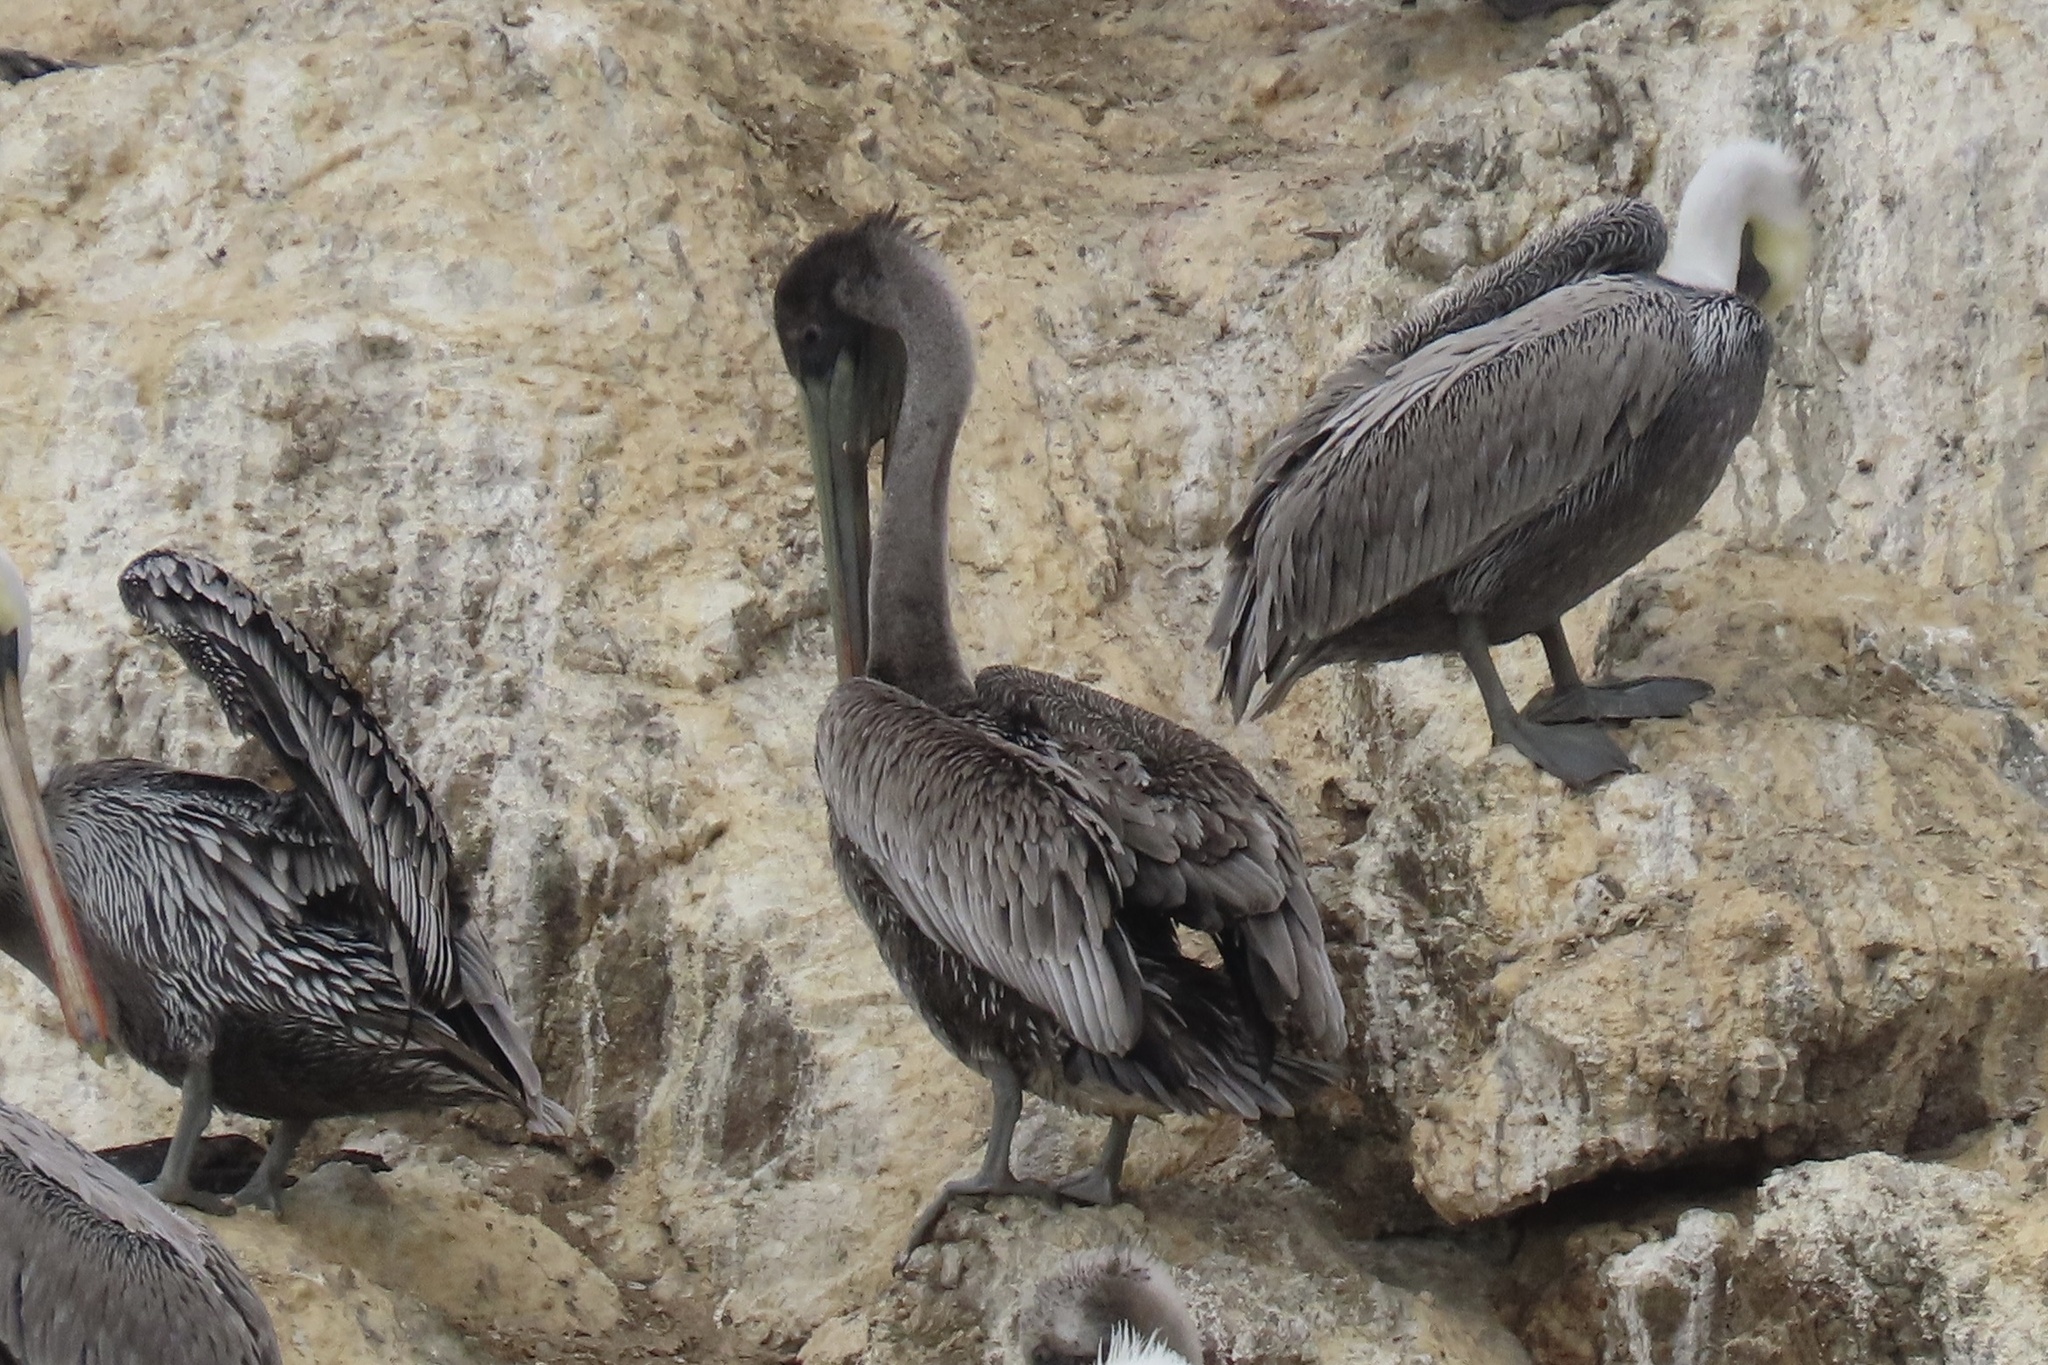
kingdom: Animalia
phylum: Chordata
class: Aves
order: Pelecaniformes
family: Pelecanidae
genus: Pelecanus
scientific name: Pelecanus occidentalis
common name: Brown pelican
